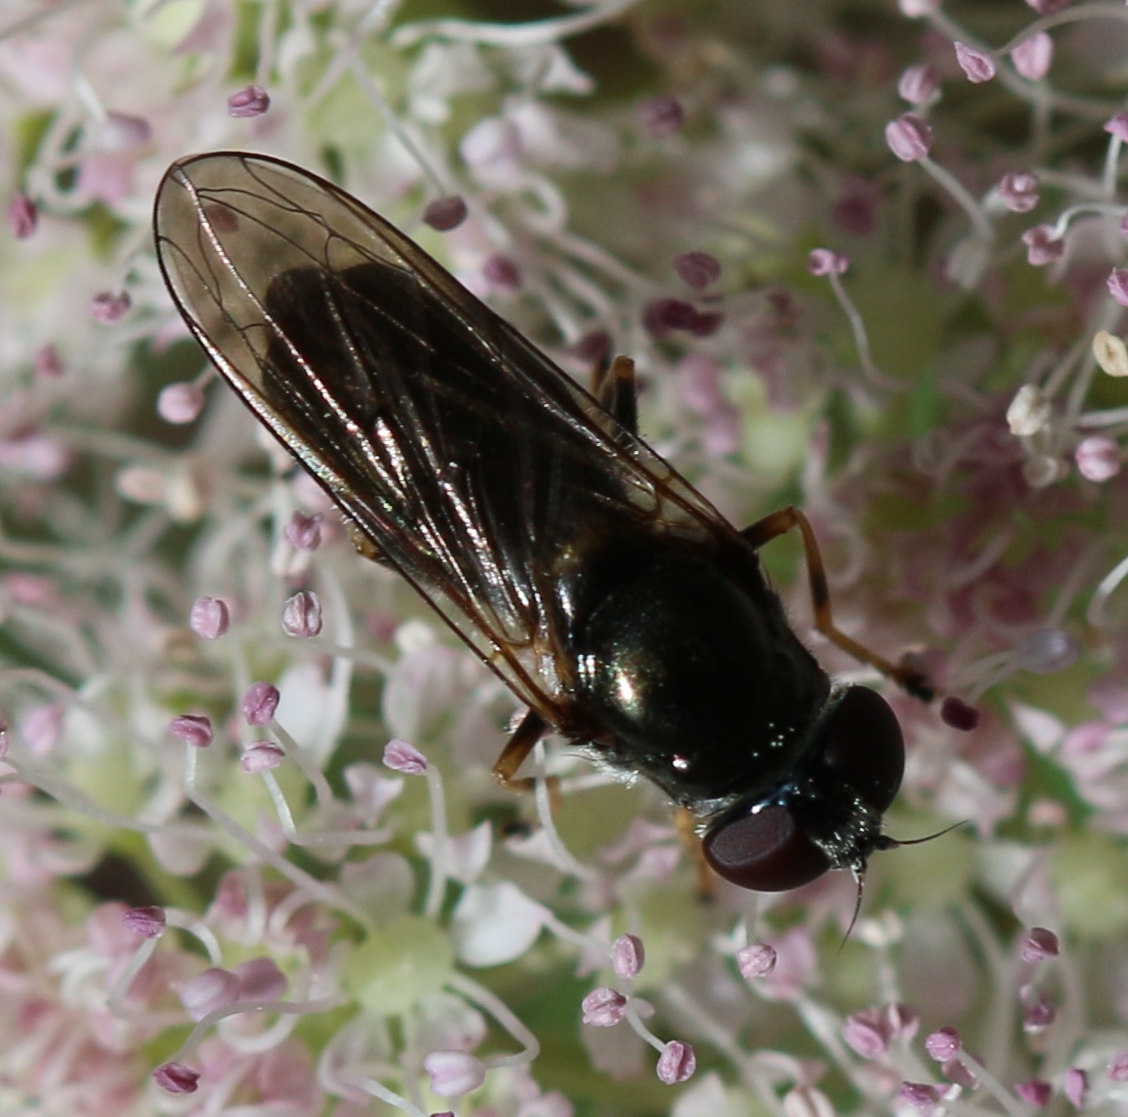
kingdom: Animalia
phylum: Arthropoda
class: Insecta
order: Diptera
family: Syrphidae
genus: Cheilosia
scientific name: Cheilosia scutellata
